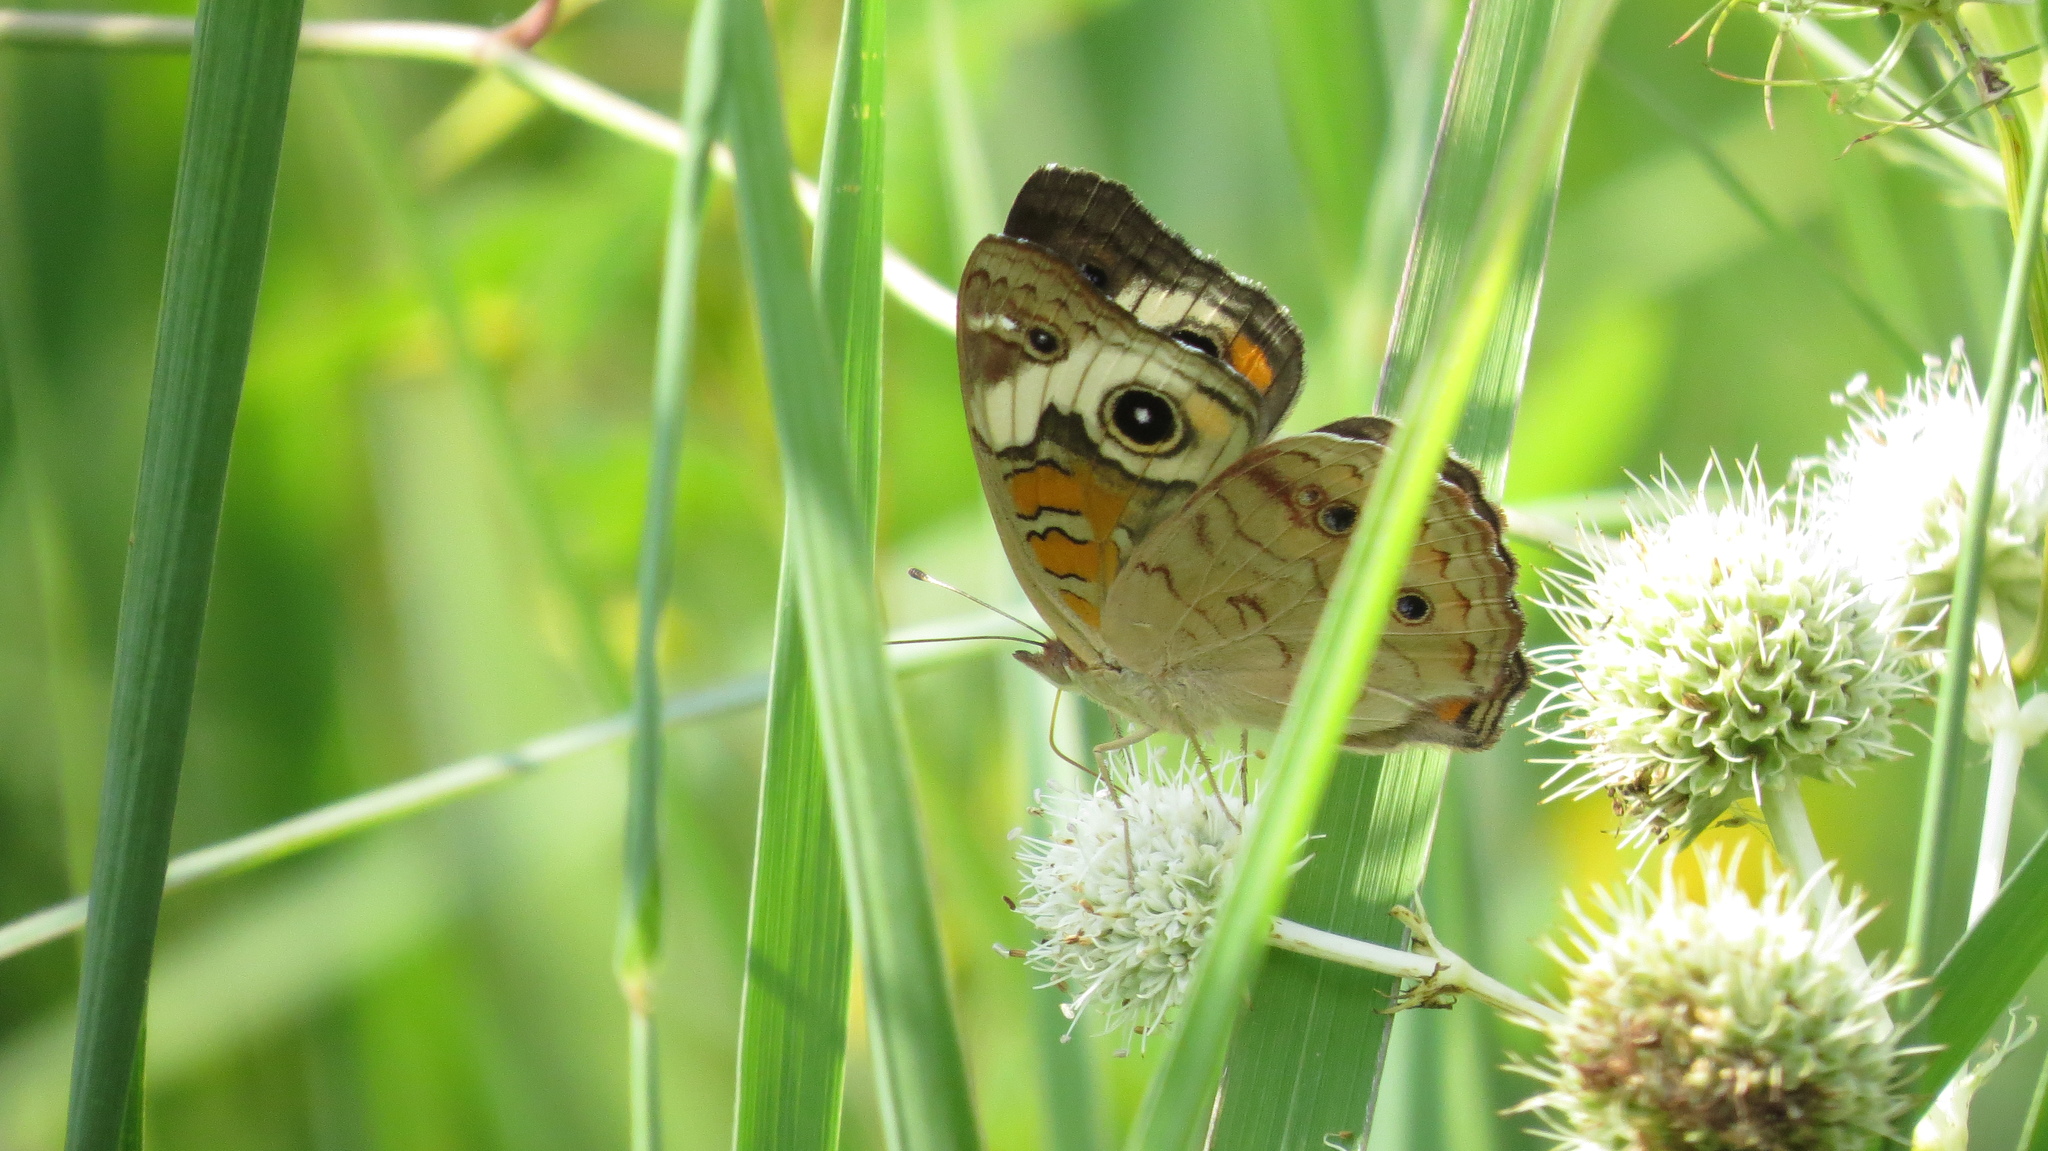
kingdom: Animalia
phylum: Arthropoda
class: Insecta
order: Lepidoptera
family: Nymphalidae
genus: Junonia
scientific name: Junonia coenia
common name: Common buckeye
